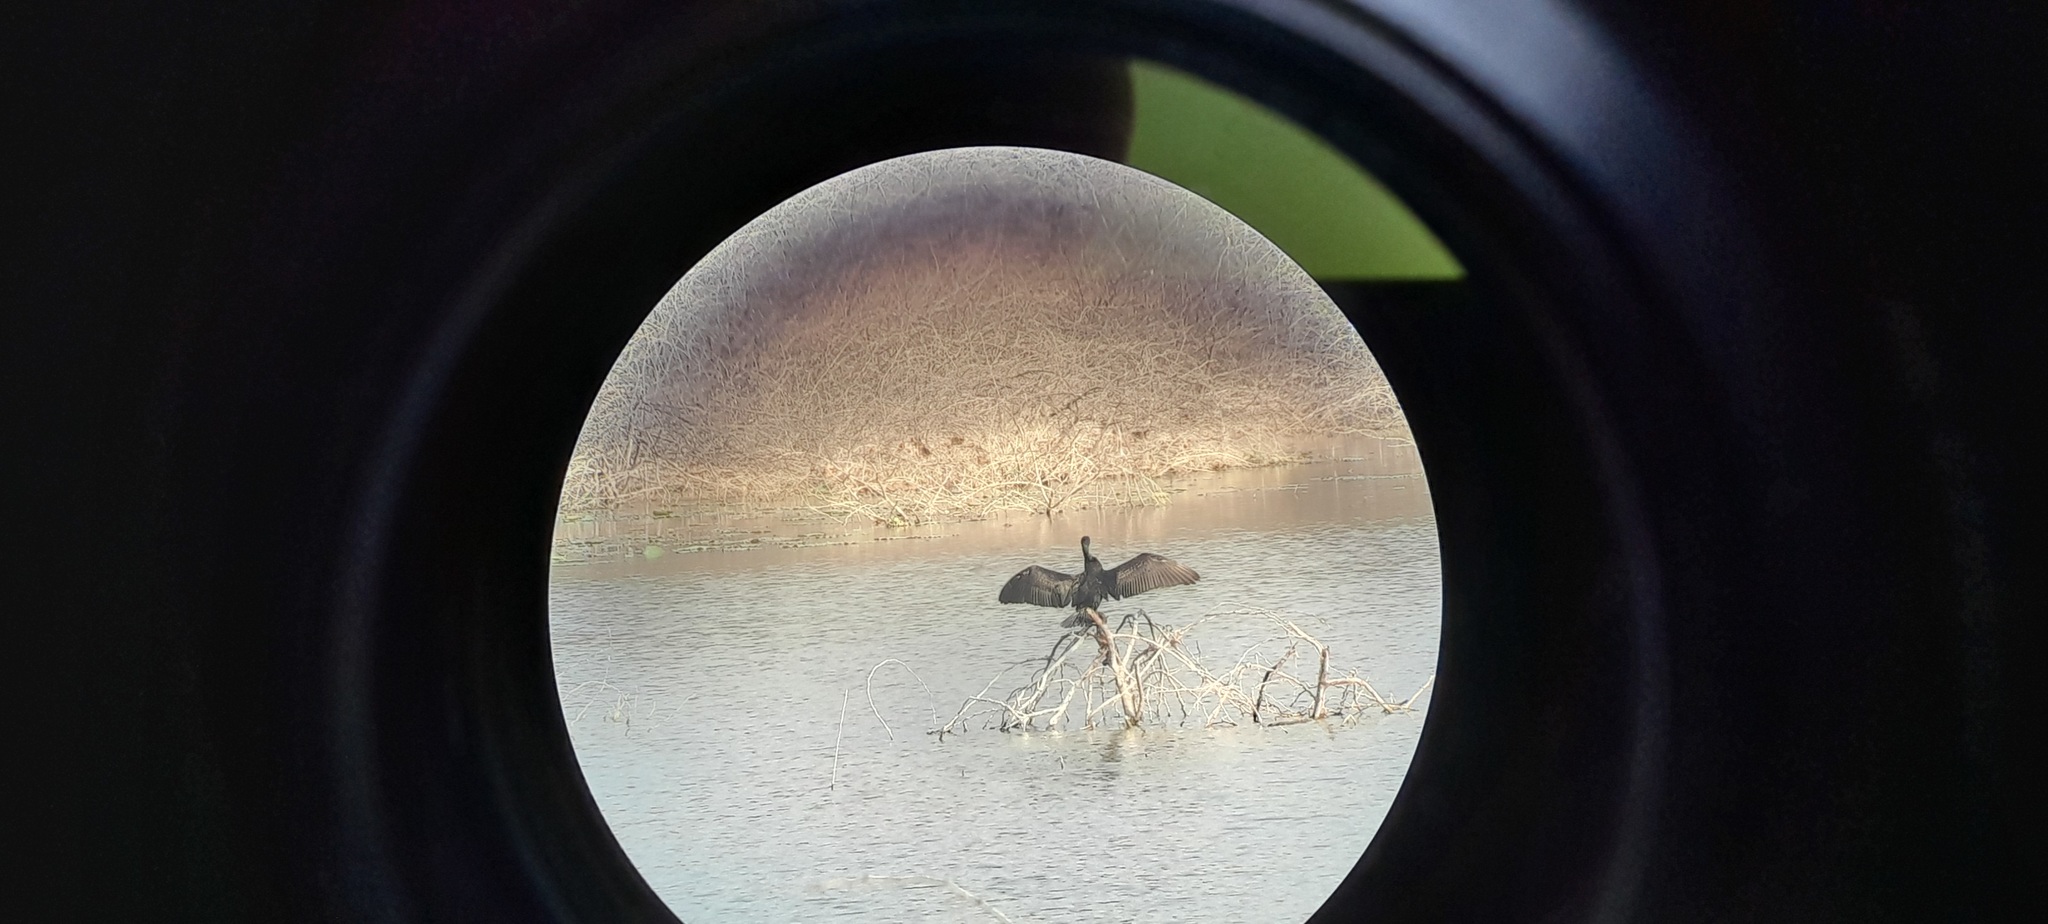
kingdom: Animalia
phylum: Chordata
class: Aves
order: Suliformes
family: Phalacrocoracidae
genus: Microcarbo
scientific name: Microcarbo niger
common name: Little cormorant
